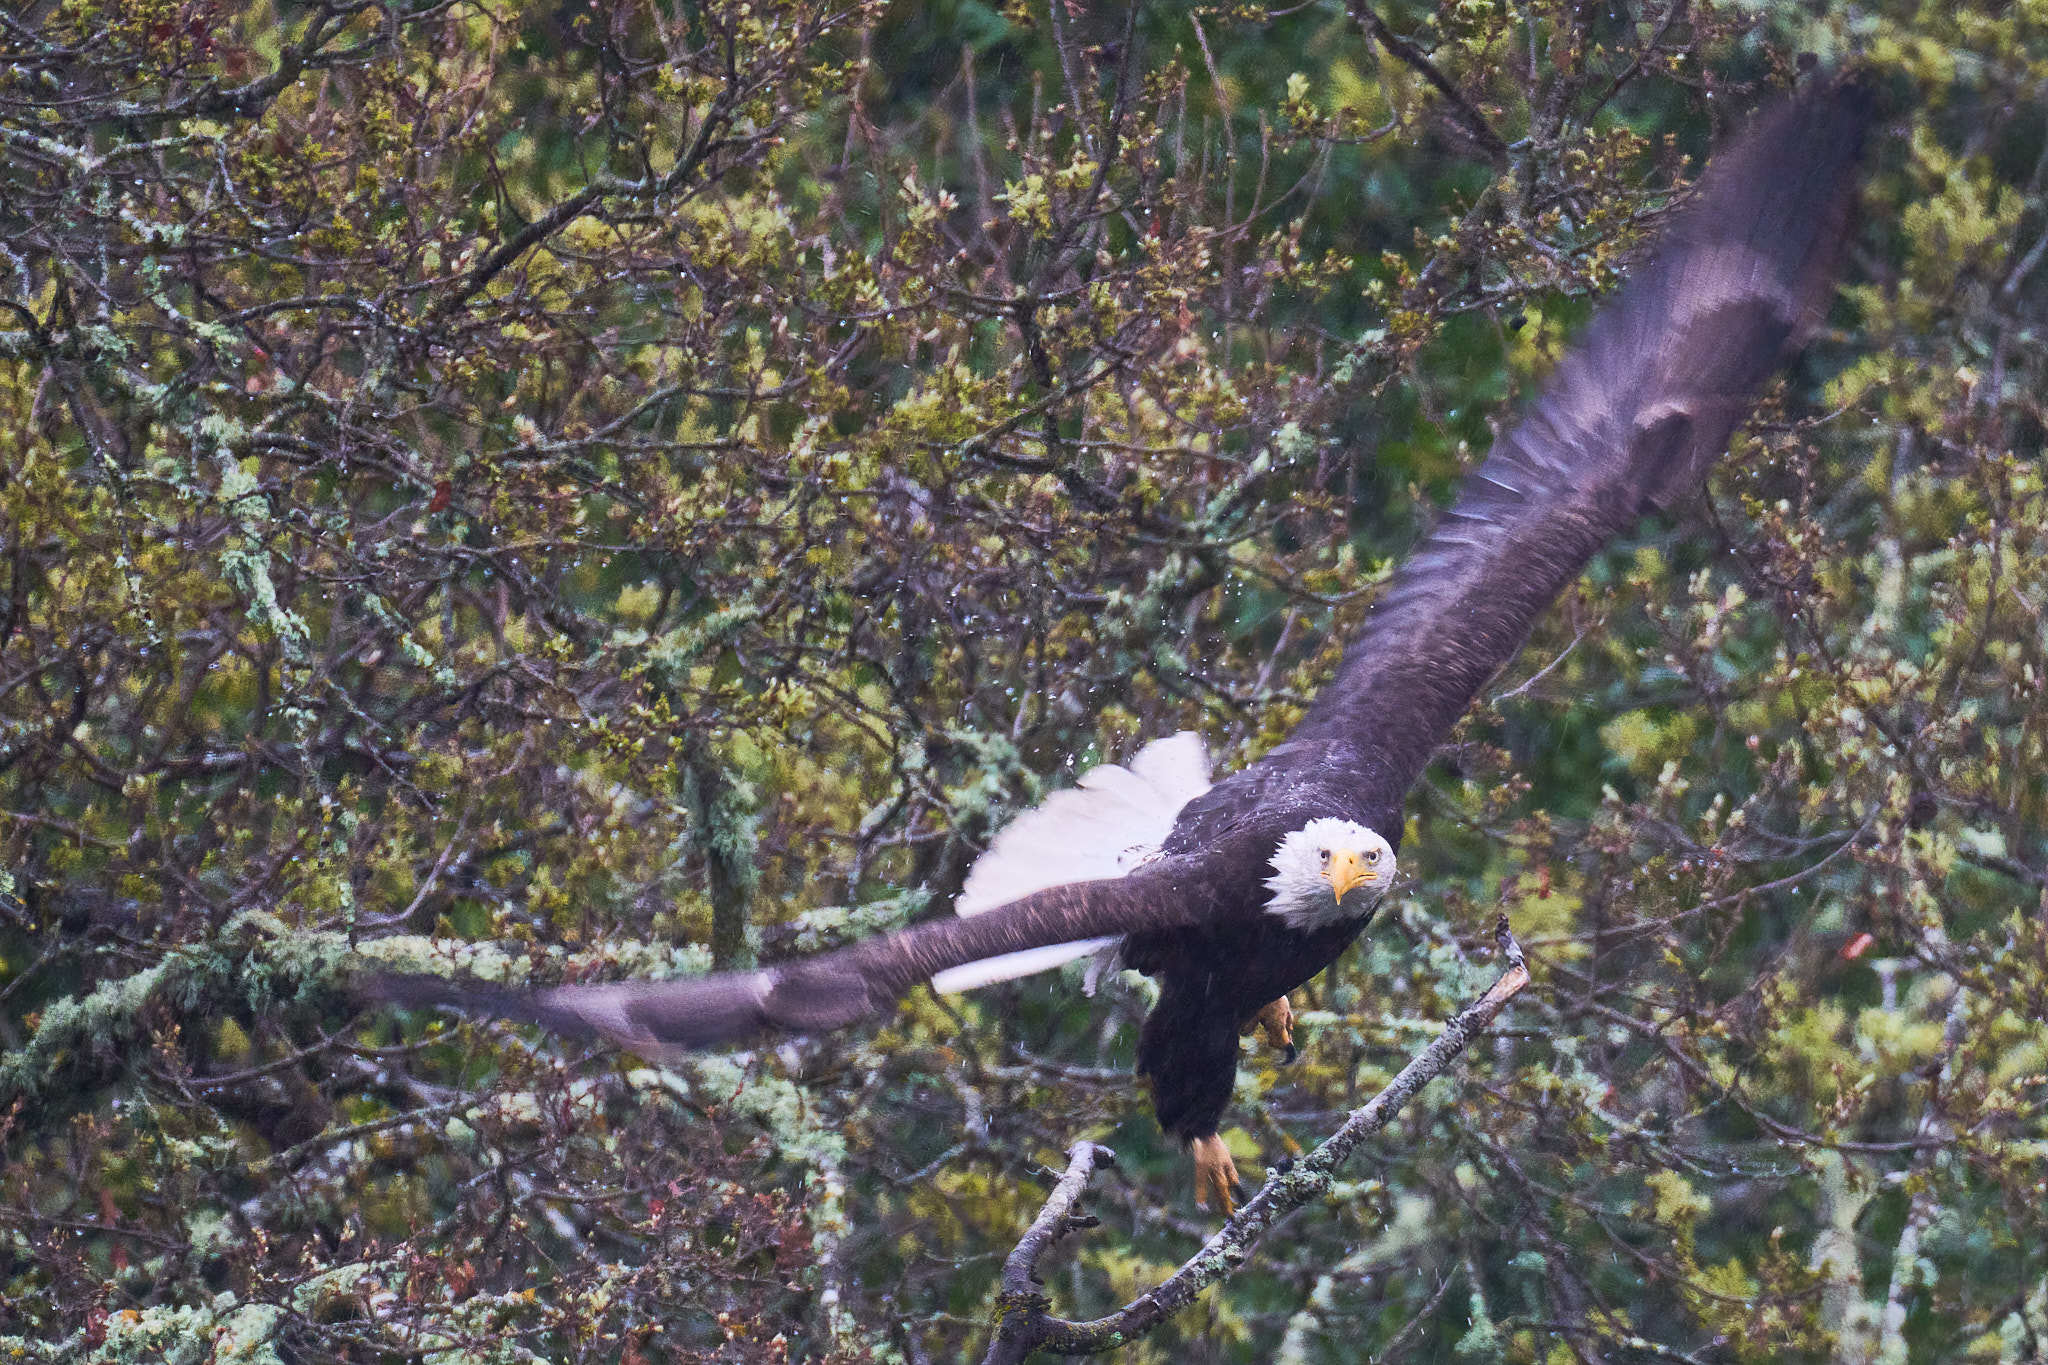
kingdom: Animalia
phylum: Chordata
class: Aves
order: Accipitriformes
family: Accipitridae
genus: Haliaeetus
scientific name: Haliaeetus leucocephalus
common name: Bald eagle
